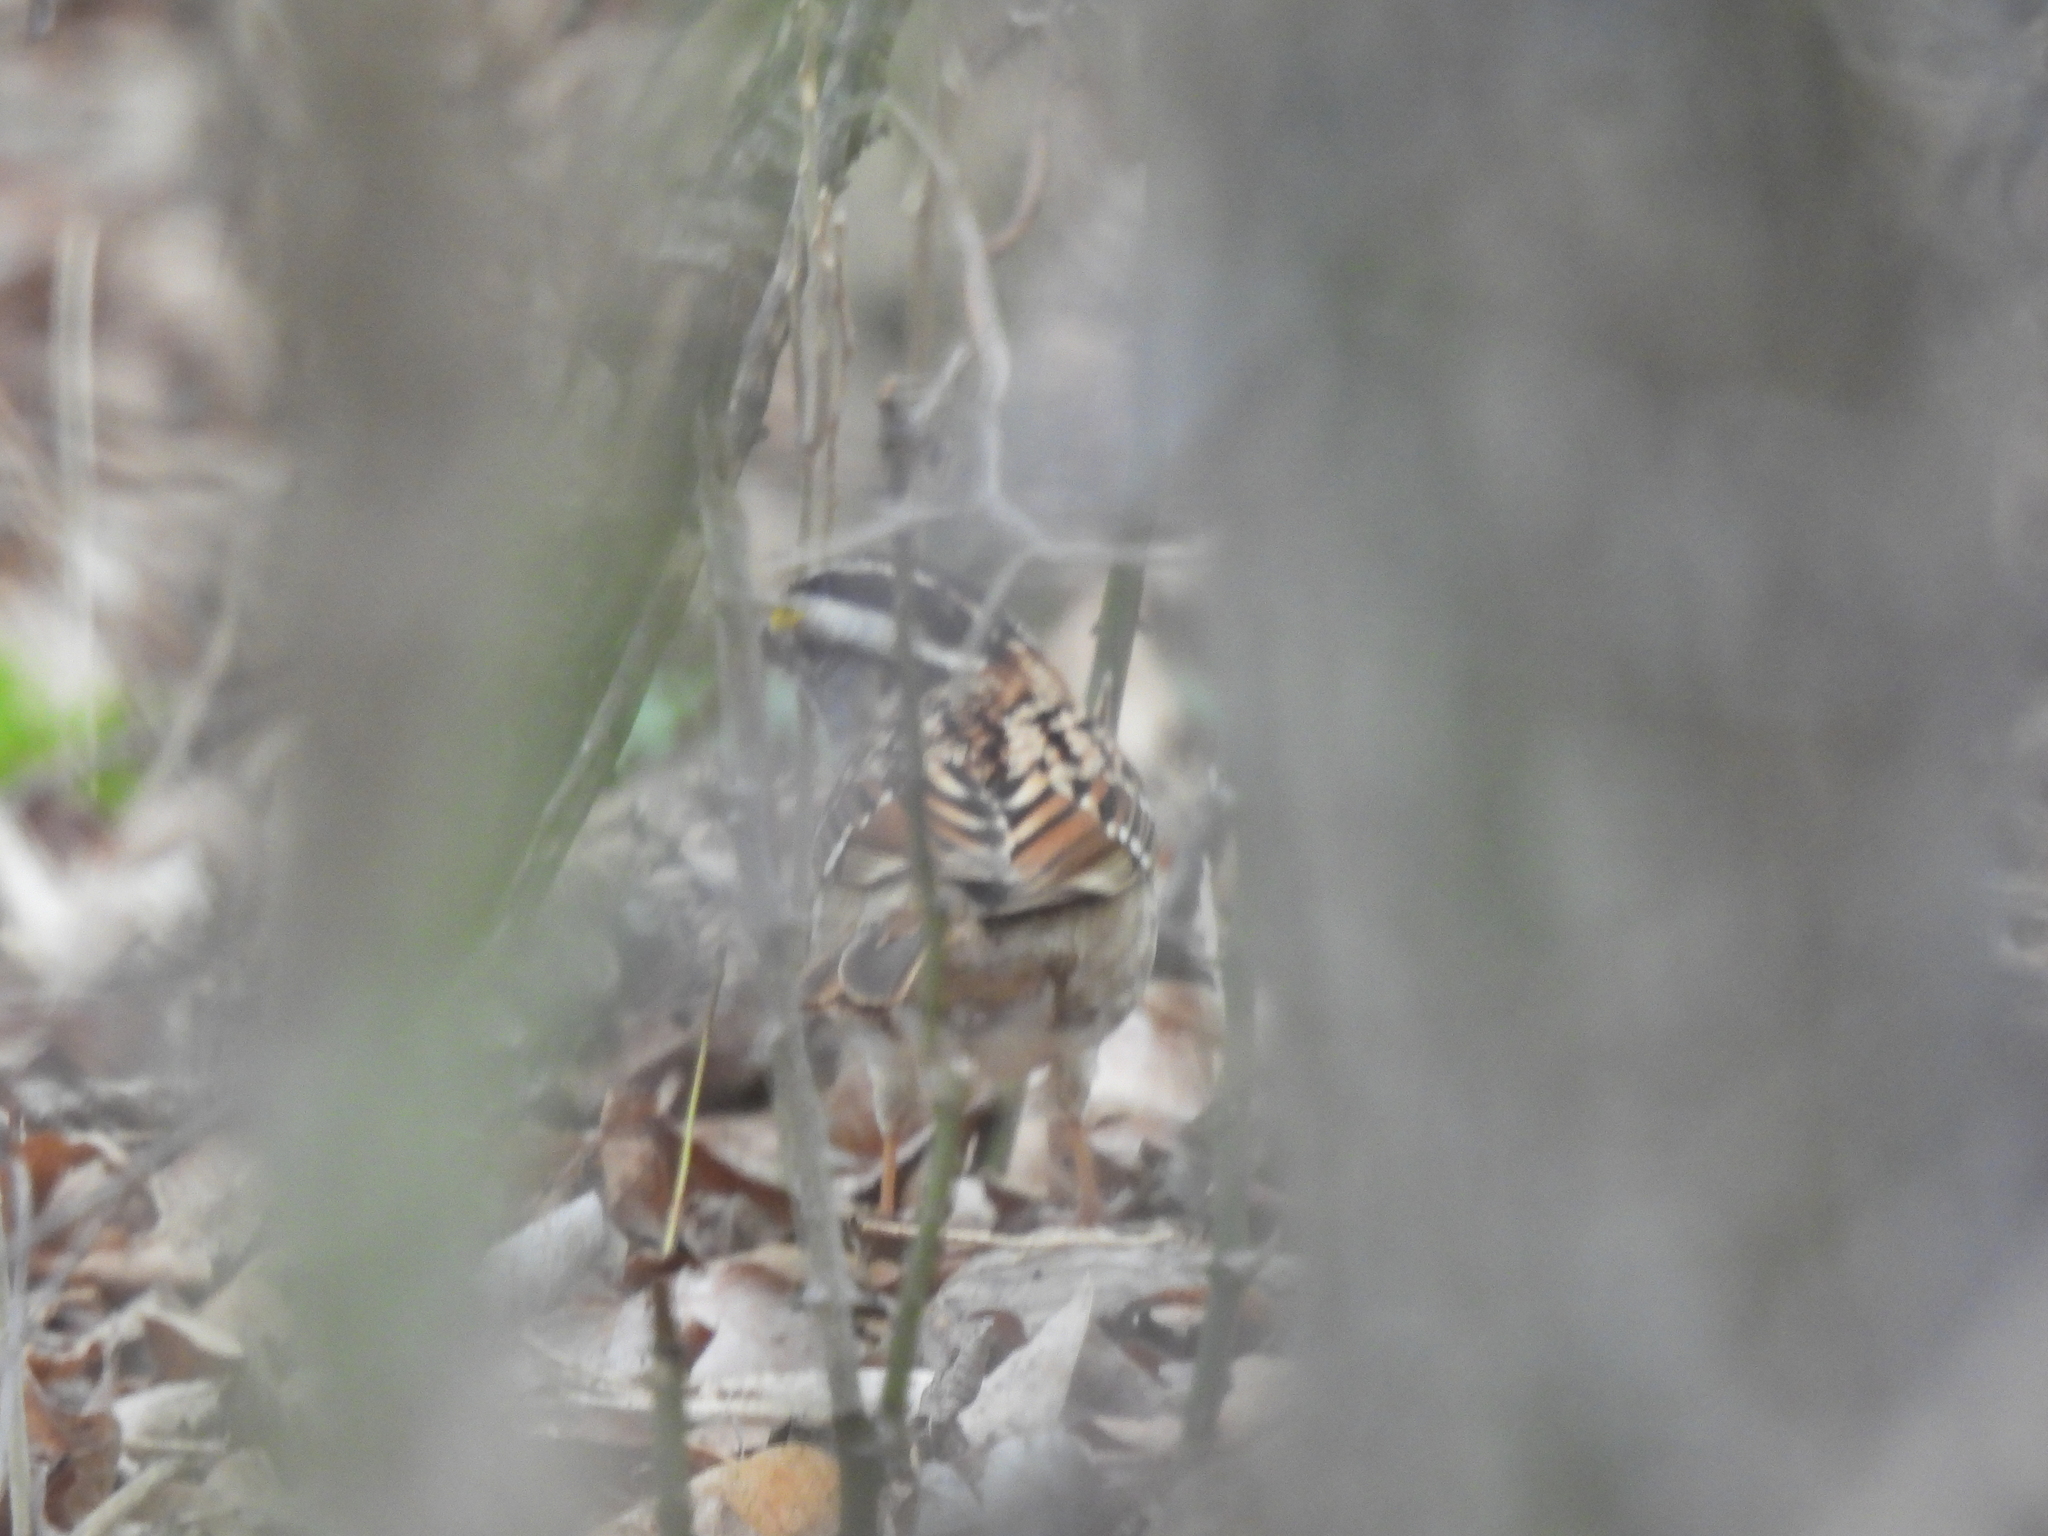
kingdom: Animalia
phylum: Chordata
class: Aves
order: Passeriformes
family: Passerellidae
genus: Zonotrichia
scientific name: Zonotrichia albicollis
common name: White-throated sparrow
